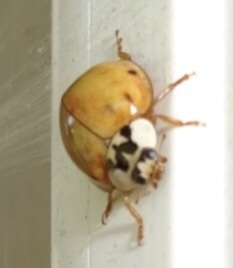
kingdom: Animalia
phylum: Arthropoda
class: Insecta
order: Coleoptera
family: Coccinellidae
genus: Harmonia
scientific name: Harmonia axyridis
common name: Harlequin ladybird
